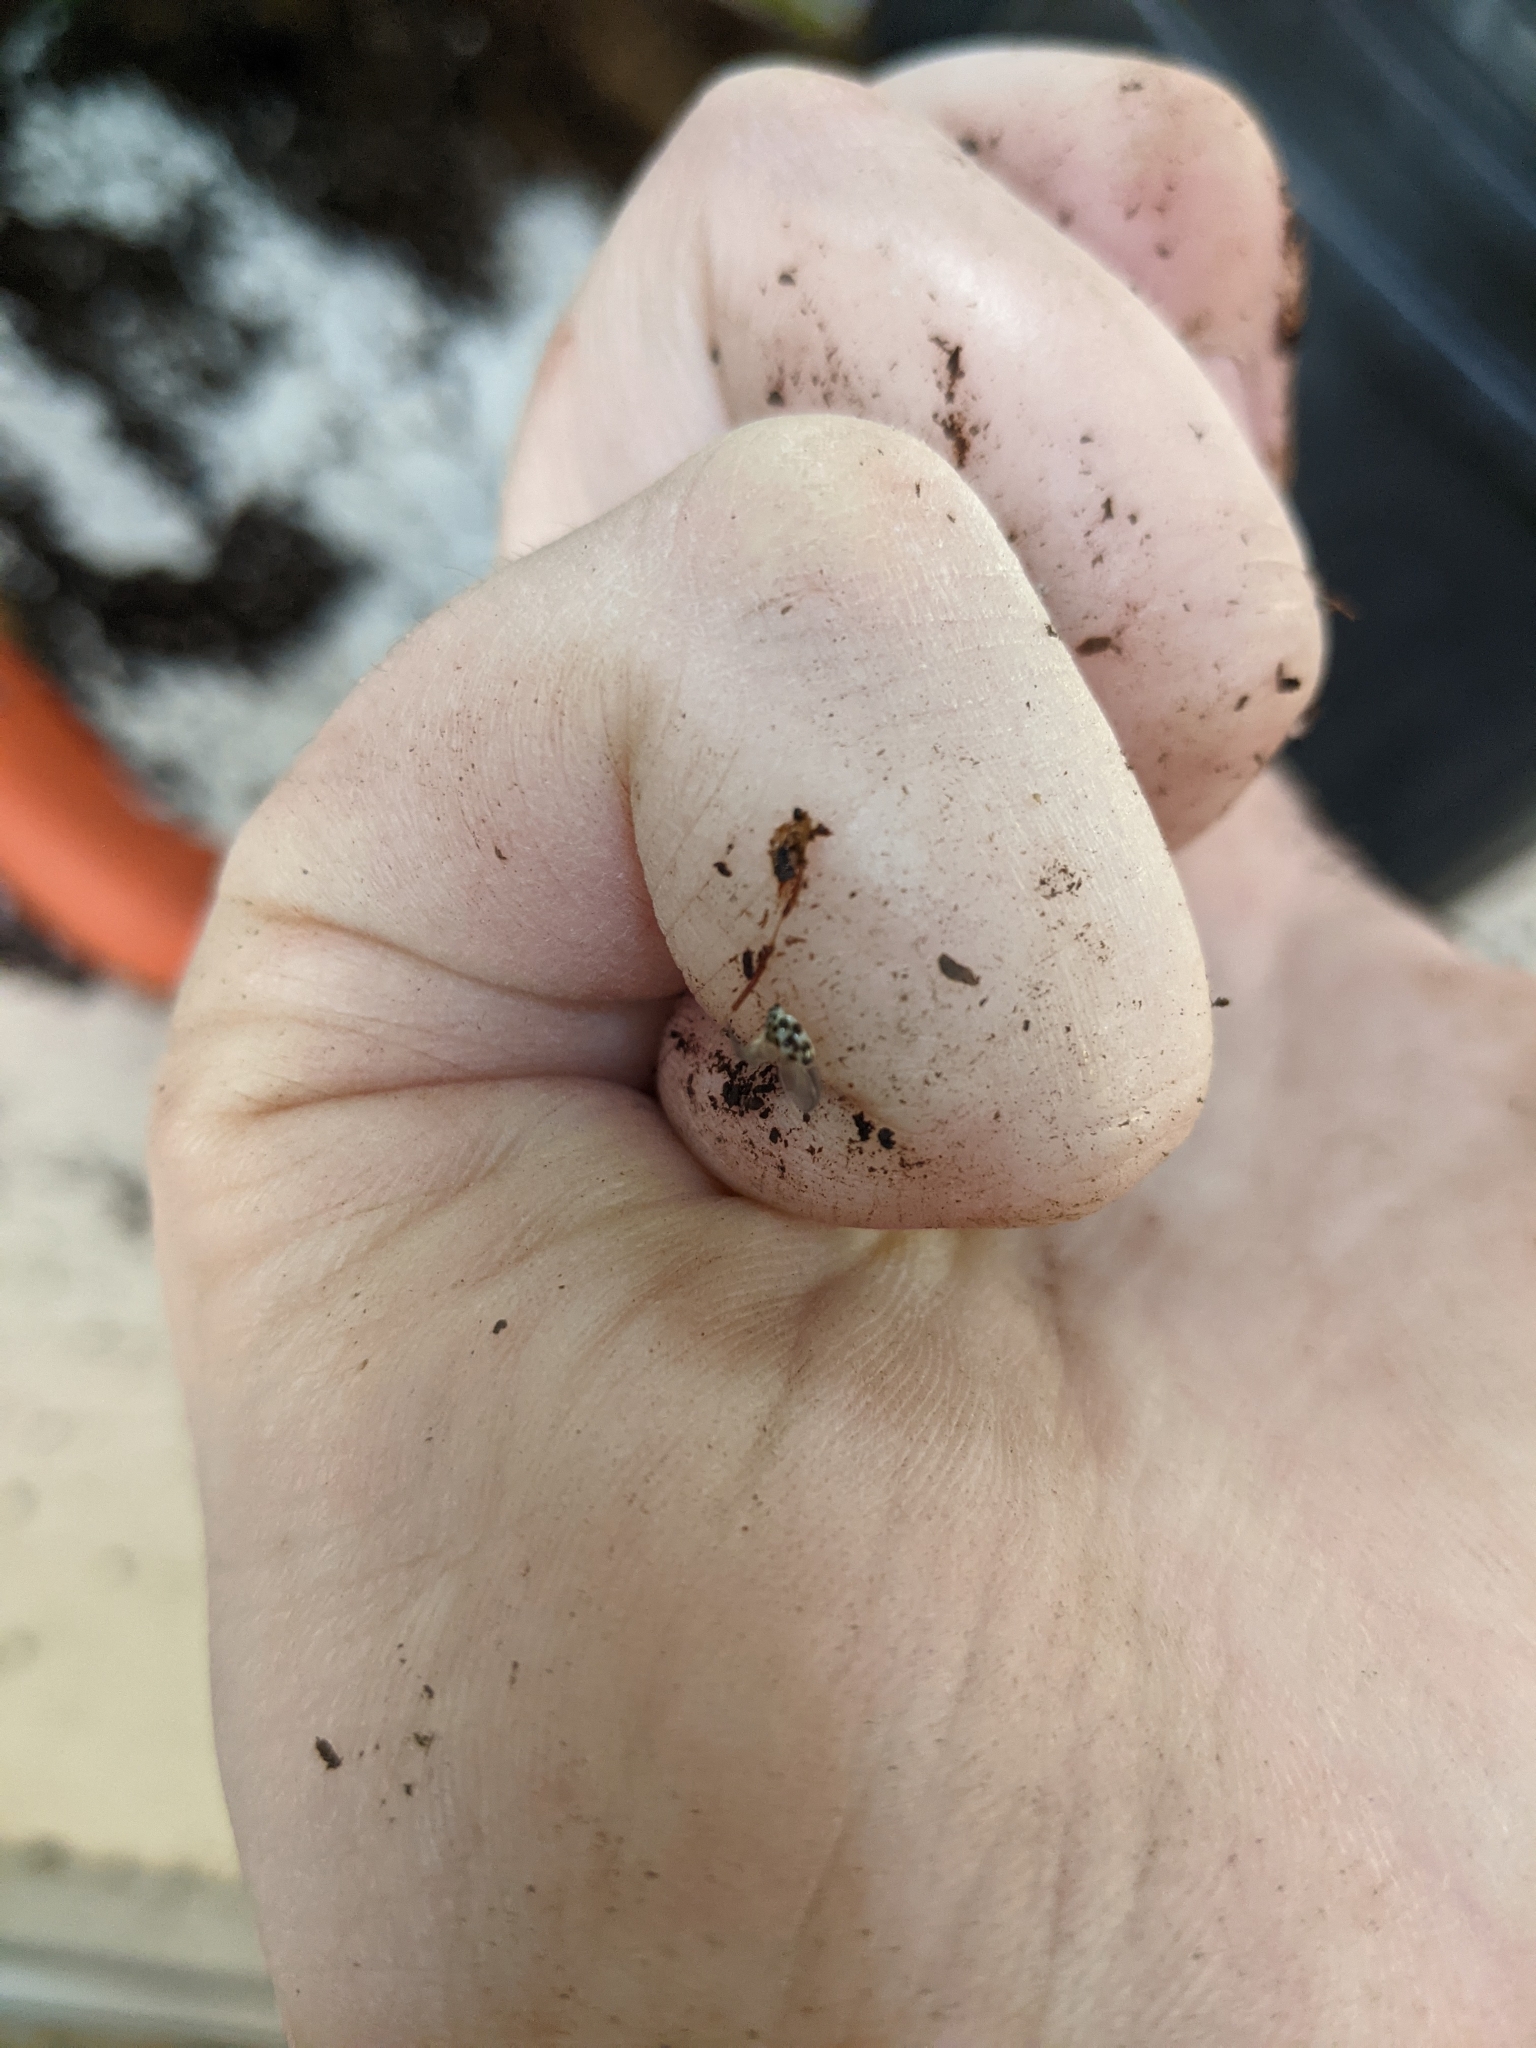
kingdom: Animalia
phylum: Arthropoda
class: Insecta
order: Coleoptera
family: Coccinellidae
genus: Psyllobora
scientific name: Psyllobora vigintimaculata
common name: Ladybird beetle
